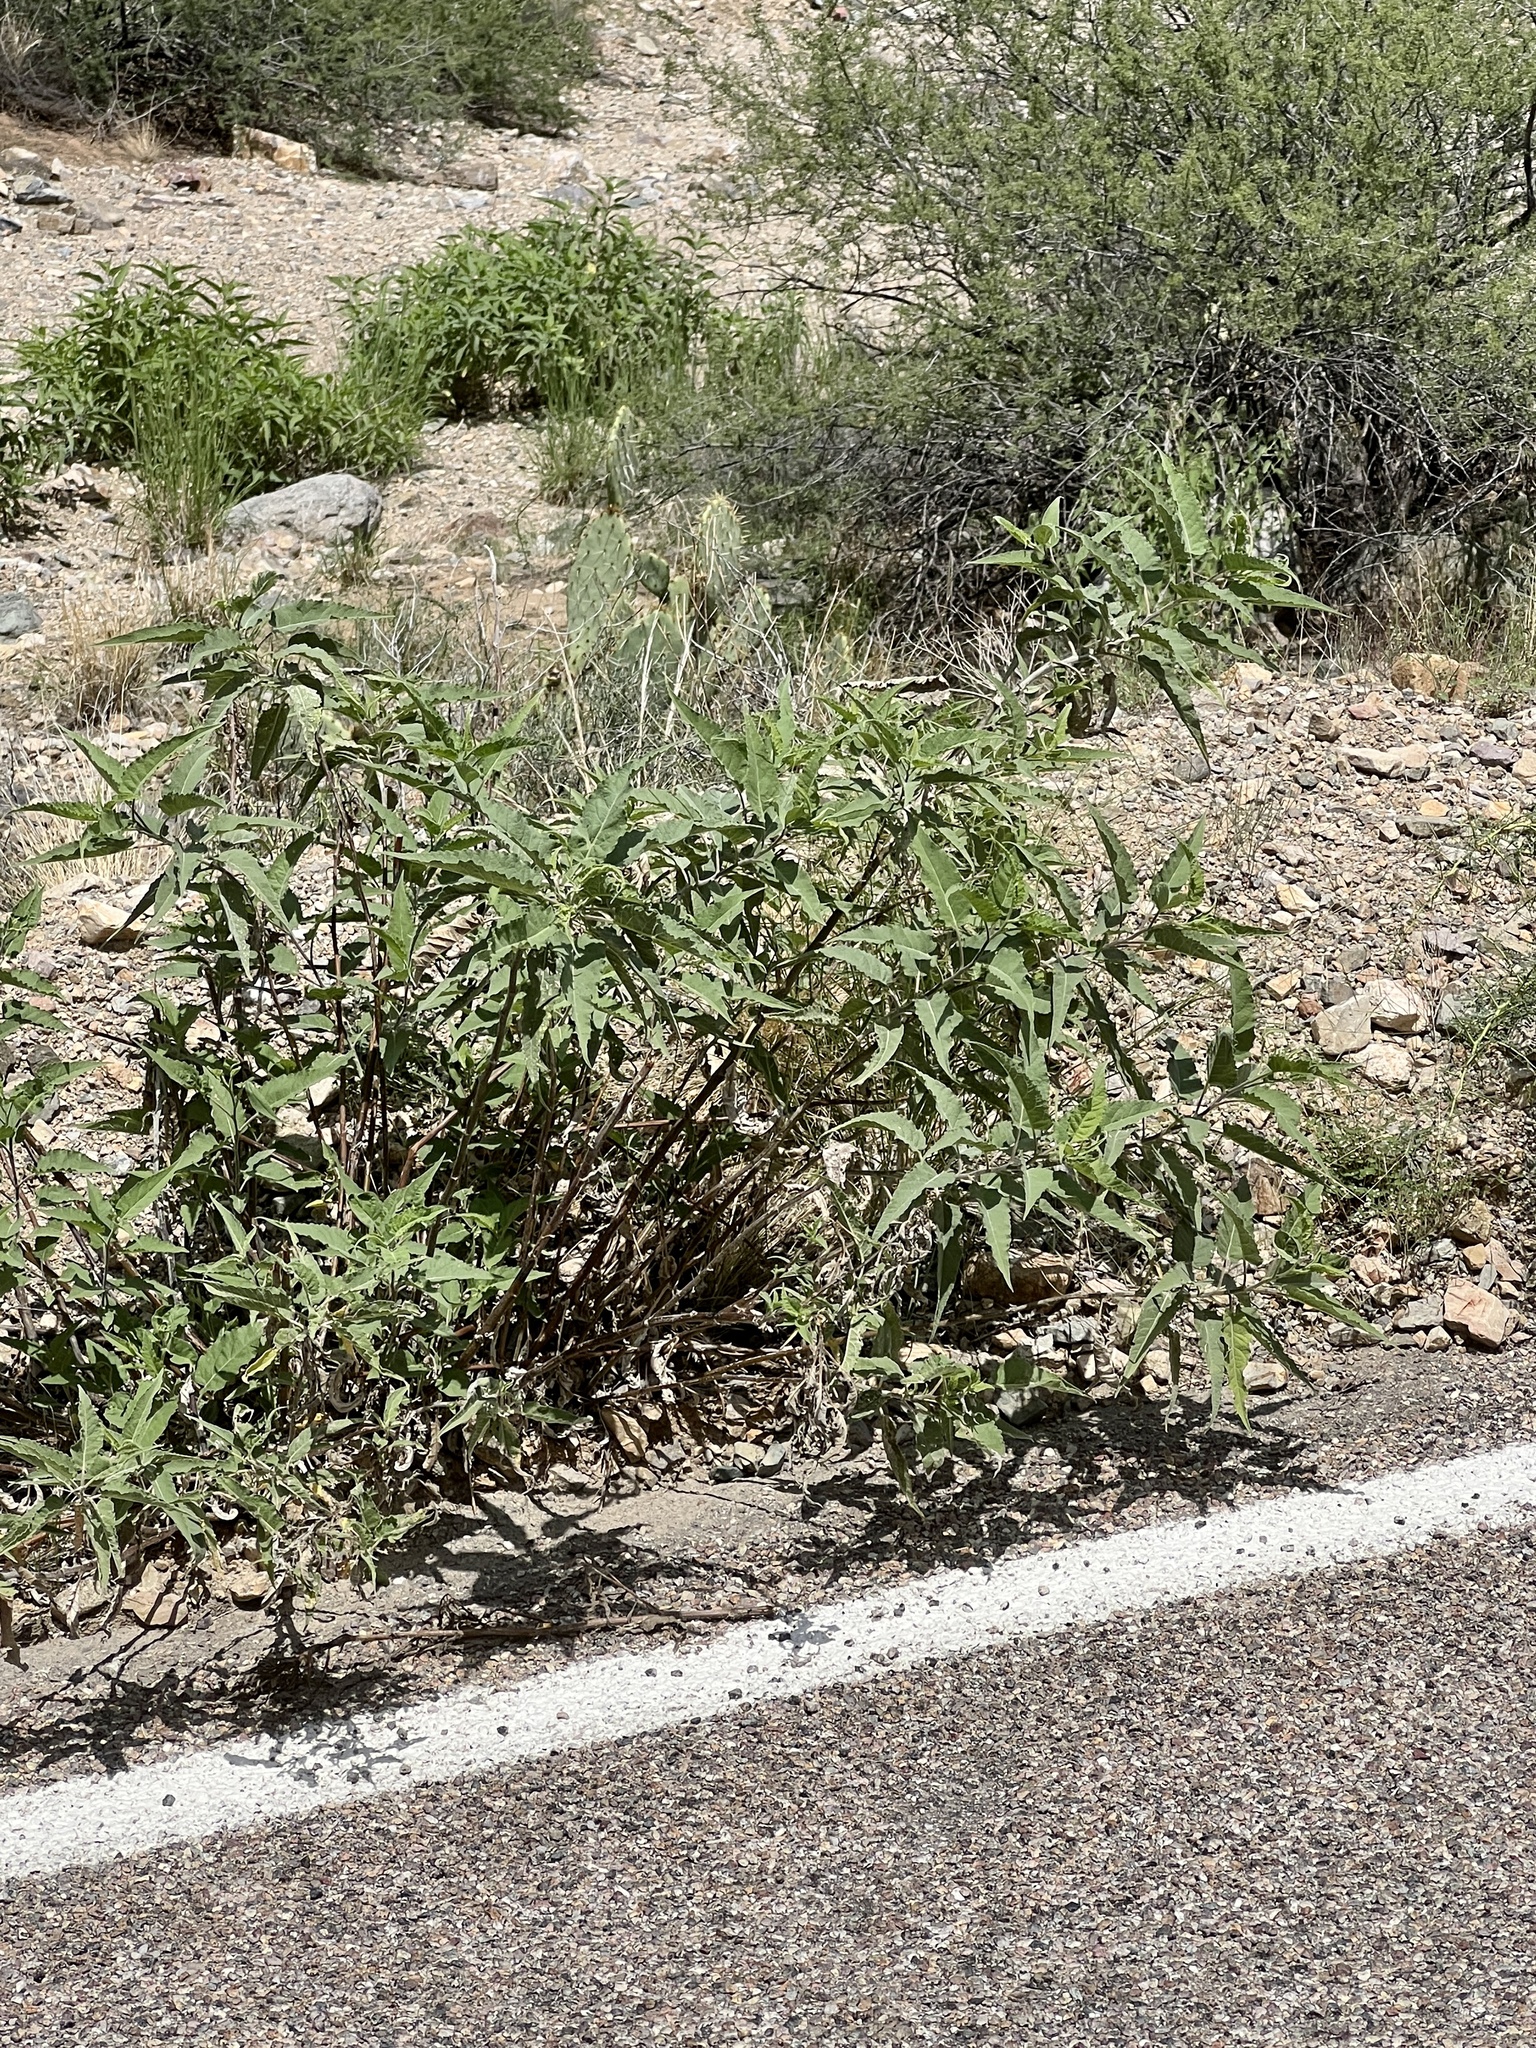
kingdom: Plantae
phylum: Tracheophyta
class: Magnoliopsida
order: Asterales
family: Asteraceae
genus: Ambrosia
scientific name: Ambrosia ambrosioides
